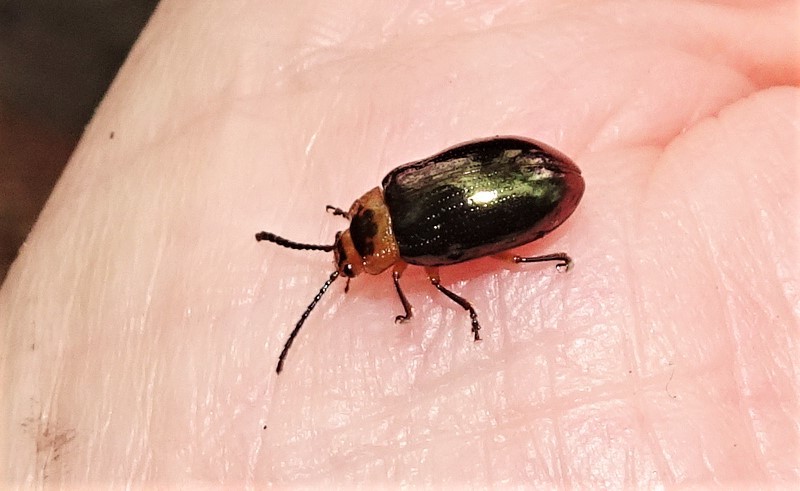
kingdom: Animalia
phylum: Arthropoda
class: Insecta
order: Coleoptera
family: Chrysomelidae
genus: Lamprolina
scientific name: Lamprolina
